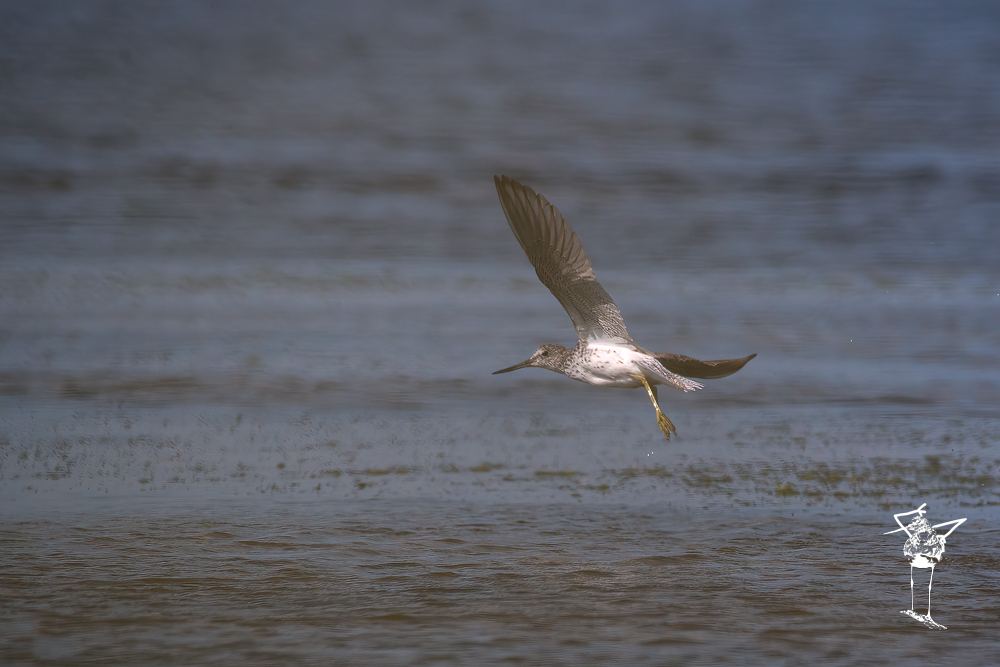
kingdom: Animalia
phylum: Chordata
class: Aves
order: Charadriiformes
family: Scolopacidae
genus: Tringa
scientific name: Tringa nebularia
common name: Common greenshank
